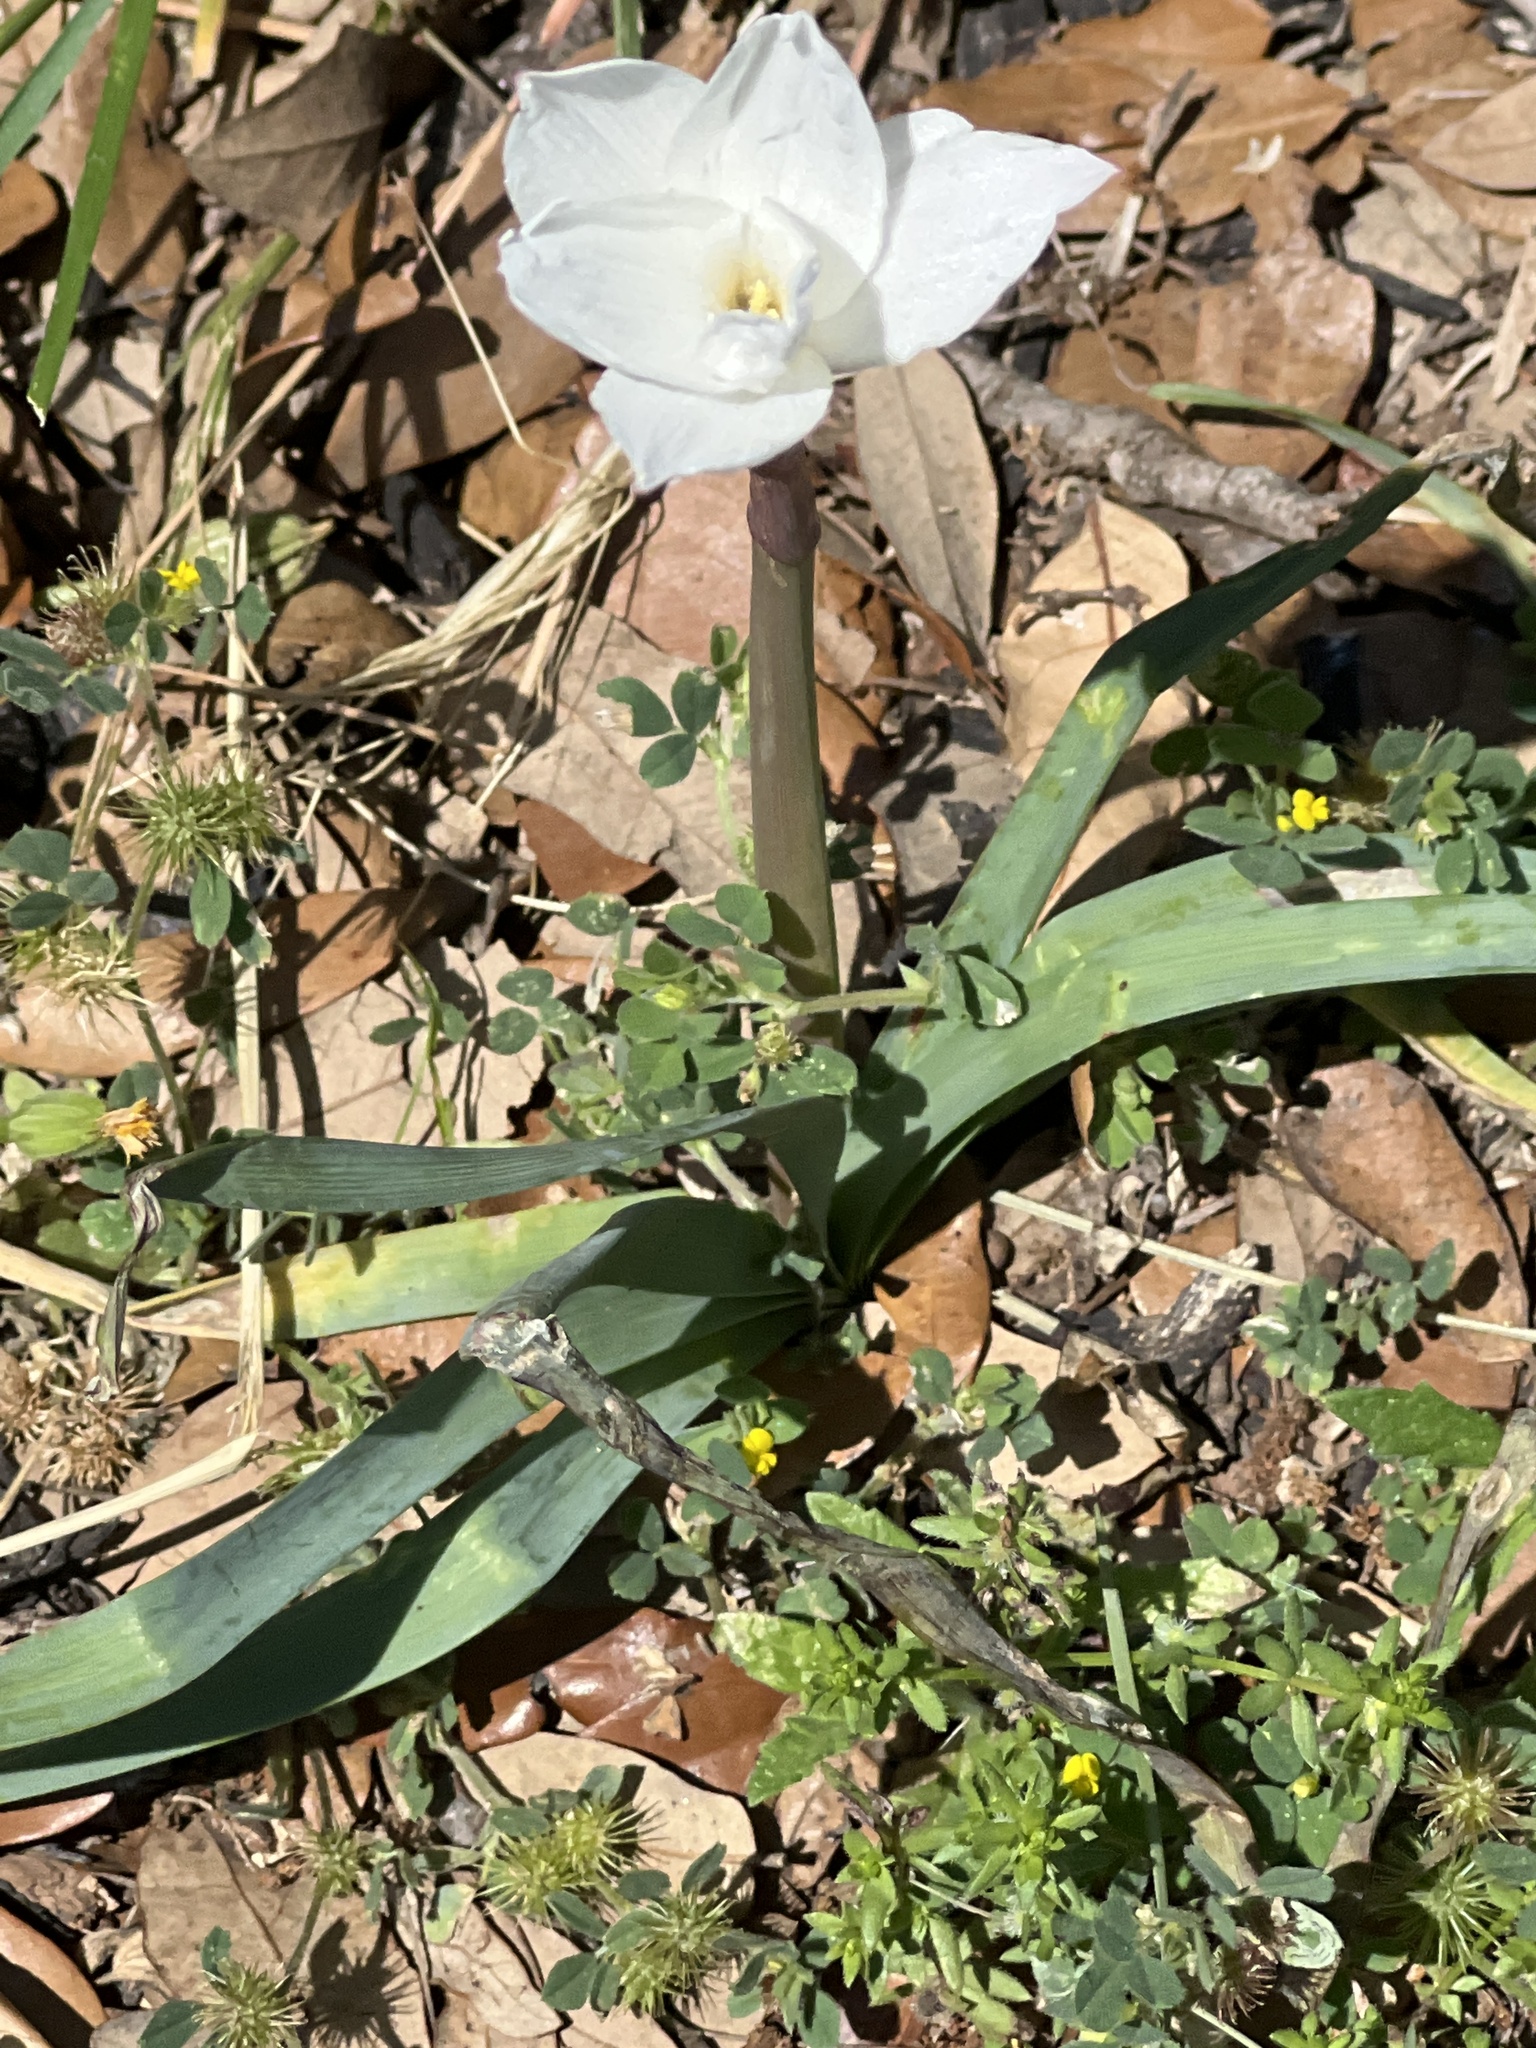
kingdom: Plantae
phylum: Tracheophyta
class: Liliopsida
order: Asparagales
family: Amaryllidaceae
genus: Zephyranthes
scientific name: Zephyranthes drummondii
